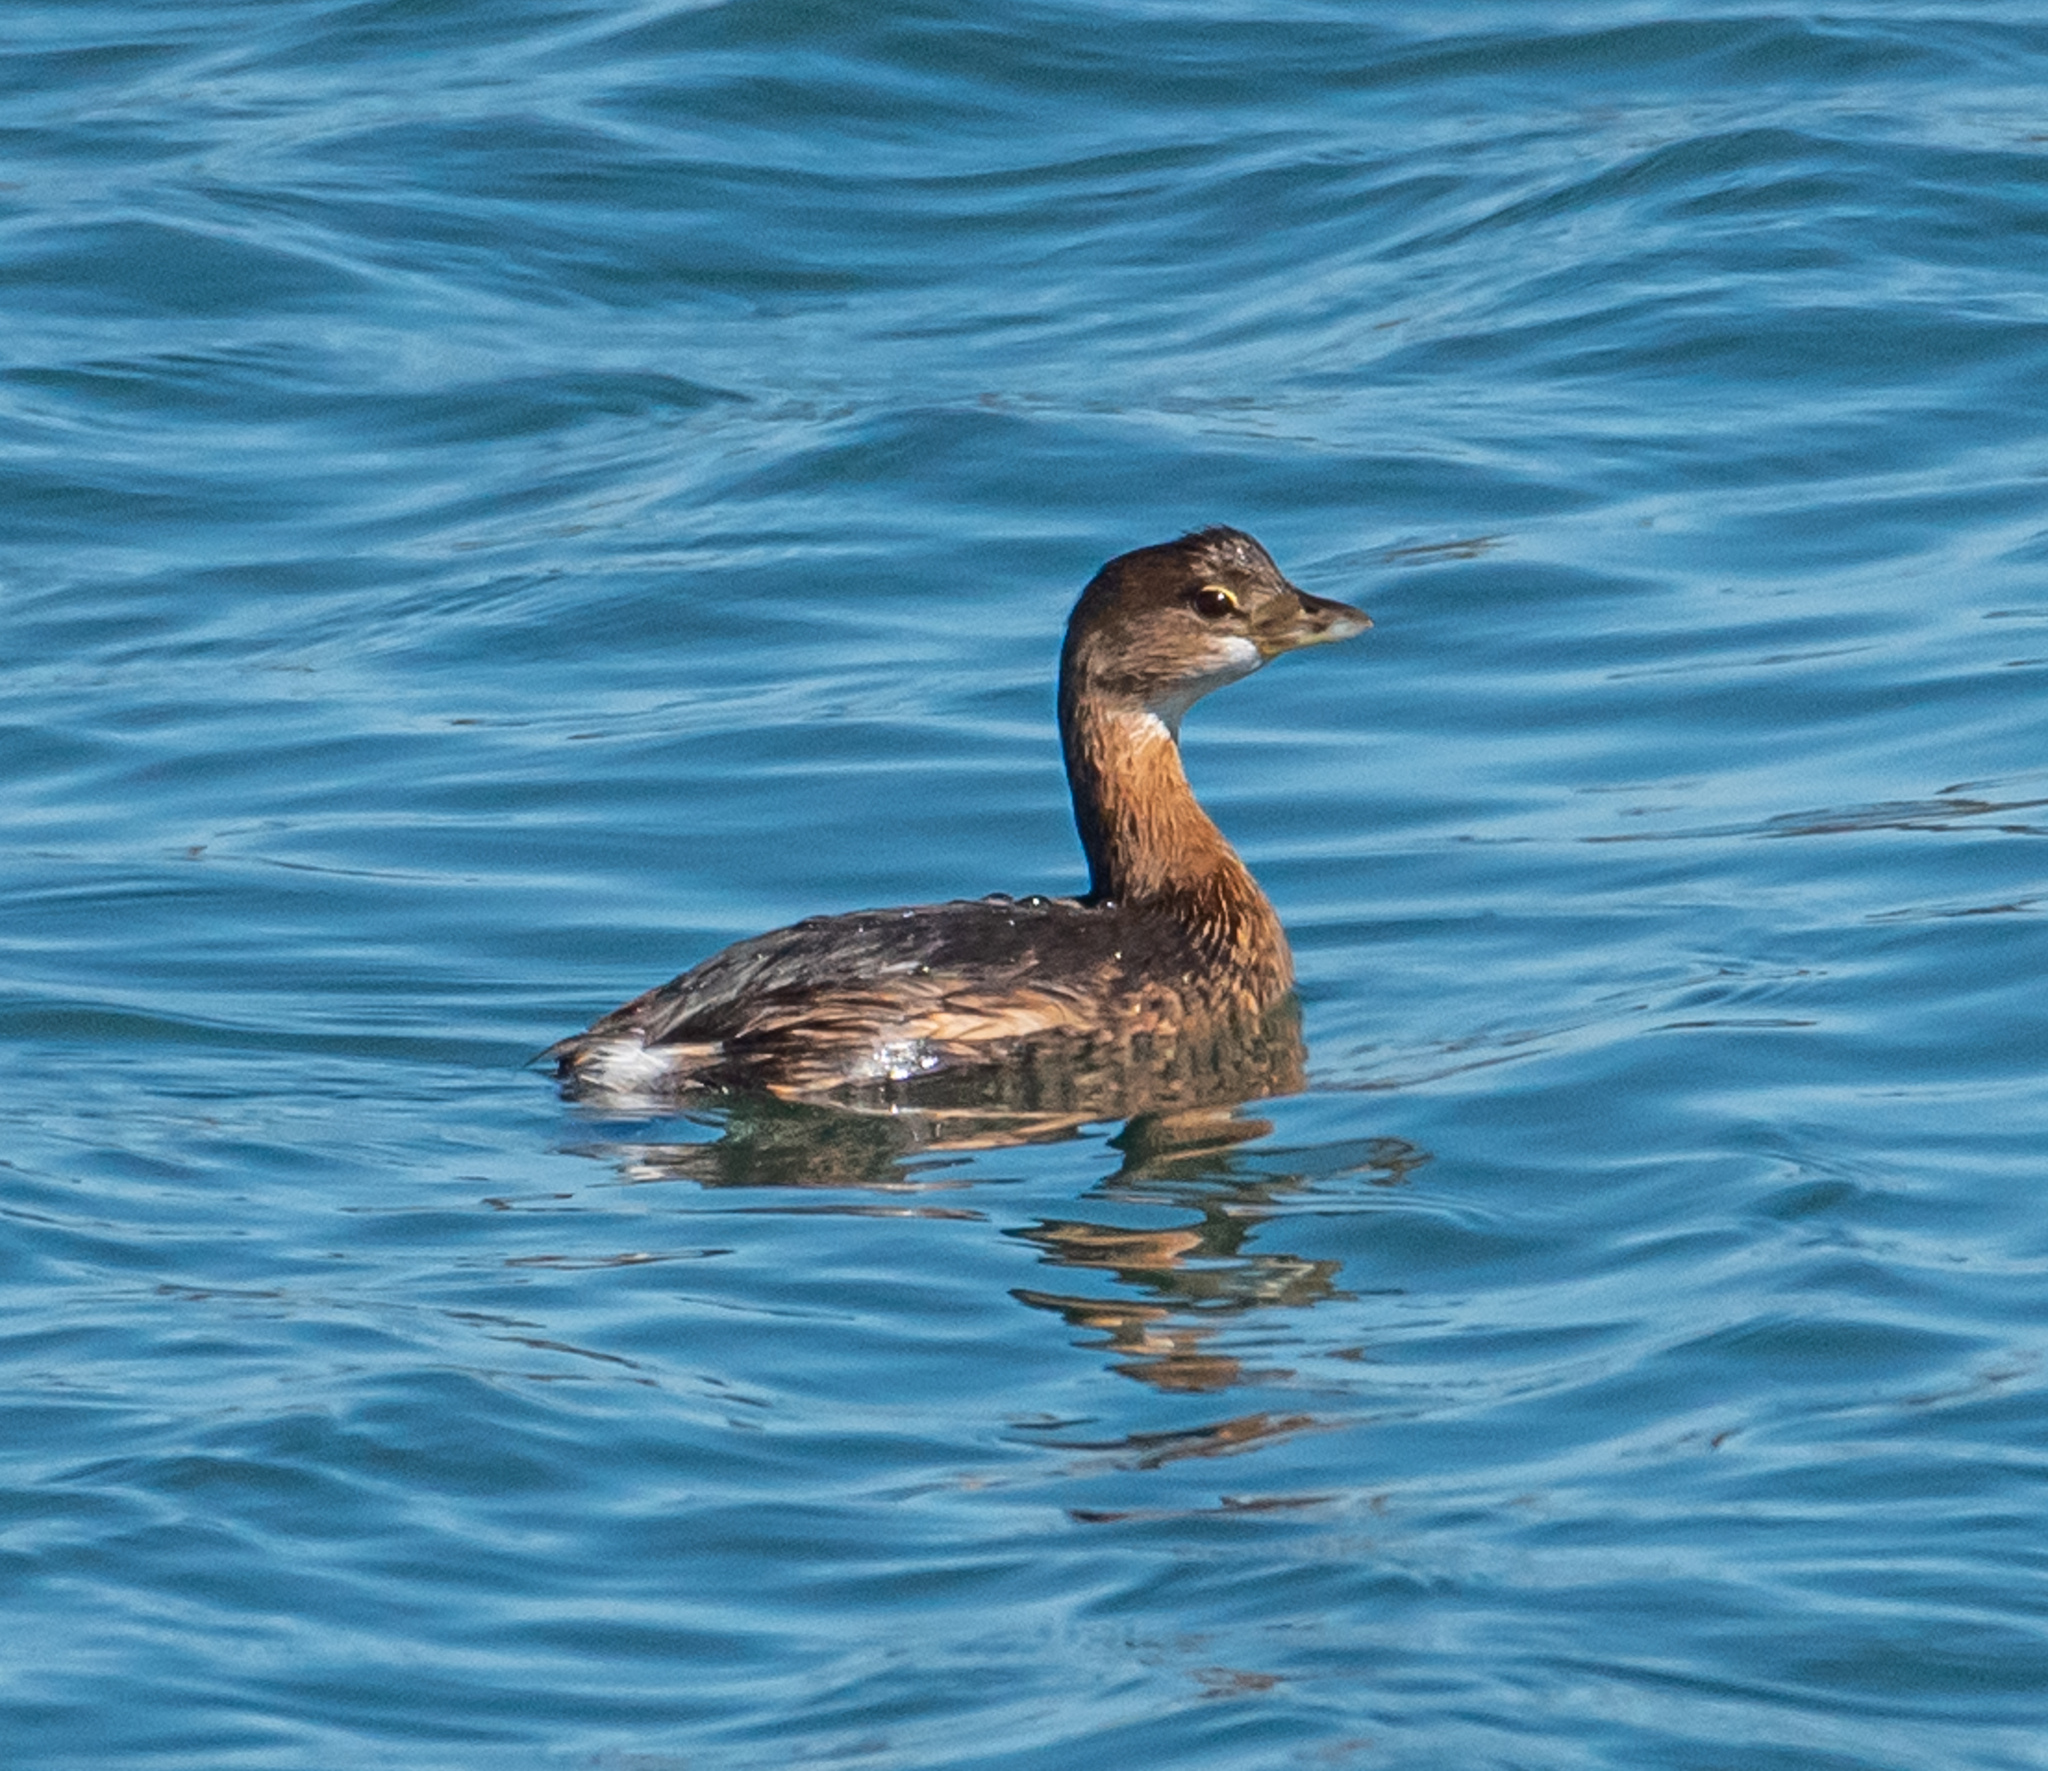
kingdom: Animalia
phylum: Chordata
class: Aves
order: Podicipediformes
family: Podicipedidae
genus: Podilymbus
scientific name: Podilymbus podiceps
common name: Pied-billed grebe
